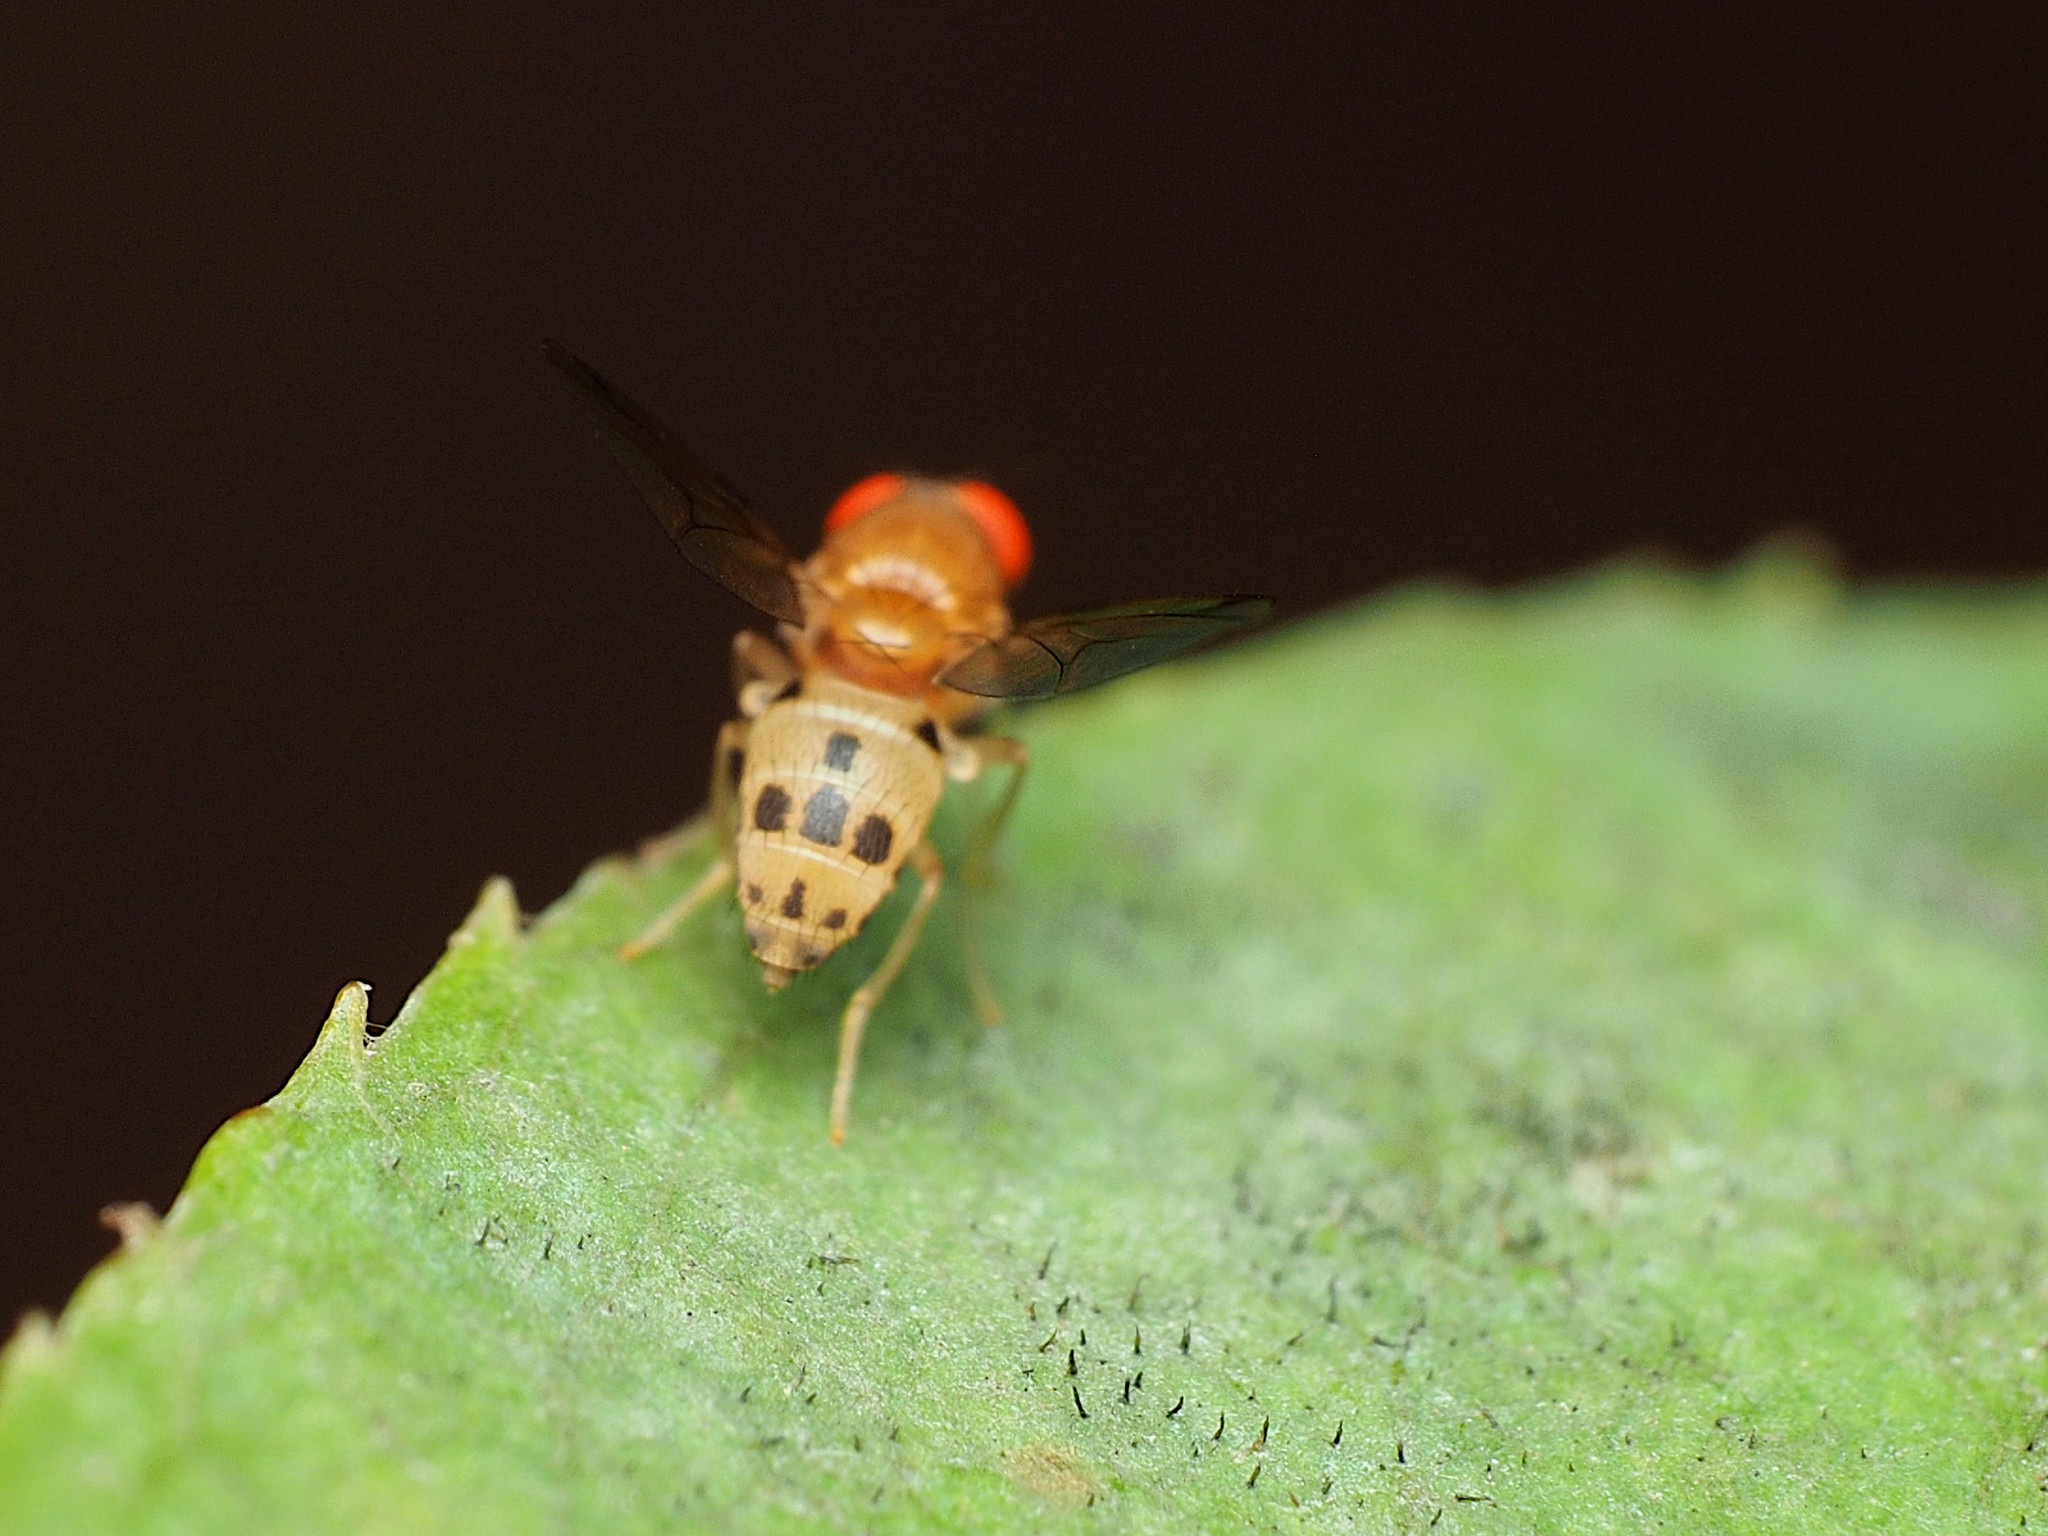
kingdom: Animalia
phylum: Arthropoda
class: Insecta
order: Diptera
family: Drosophilidae
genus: Leucophenga
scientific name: Leucophenga varia
